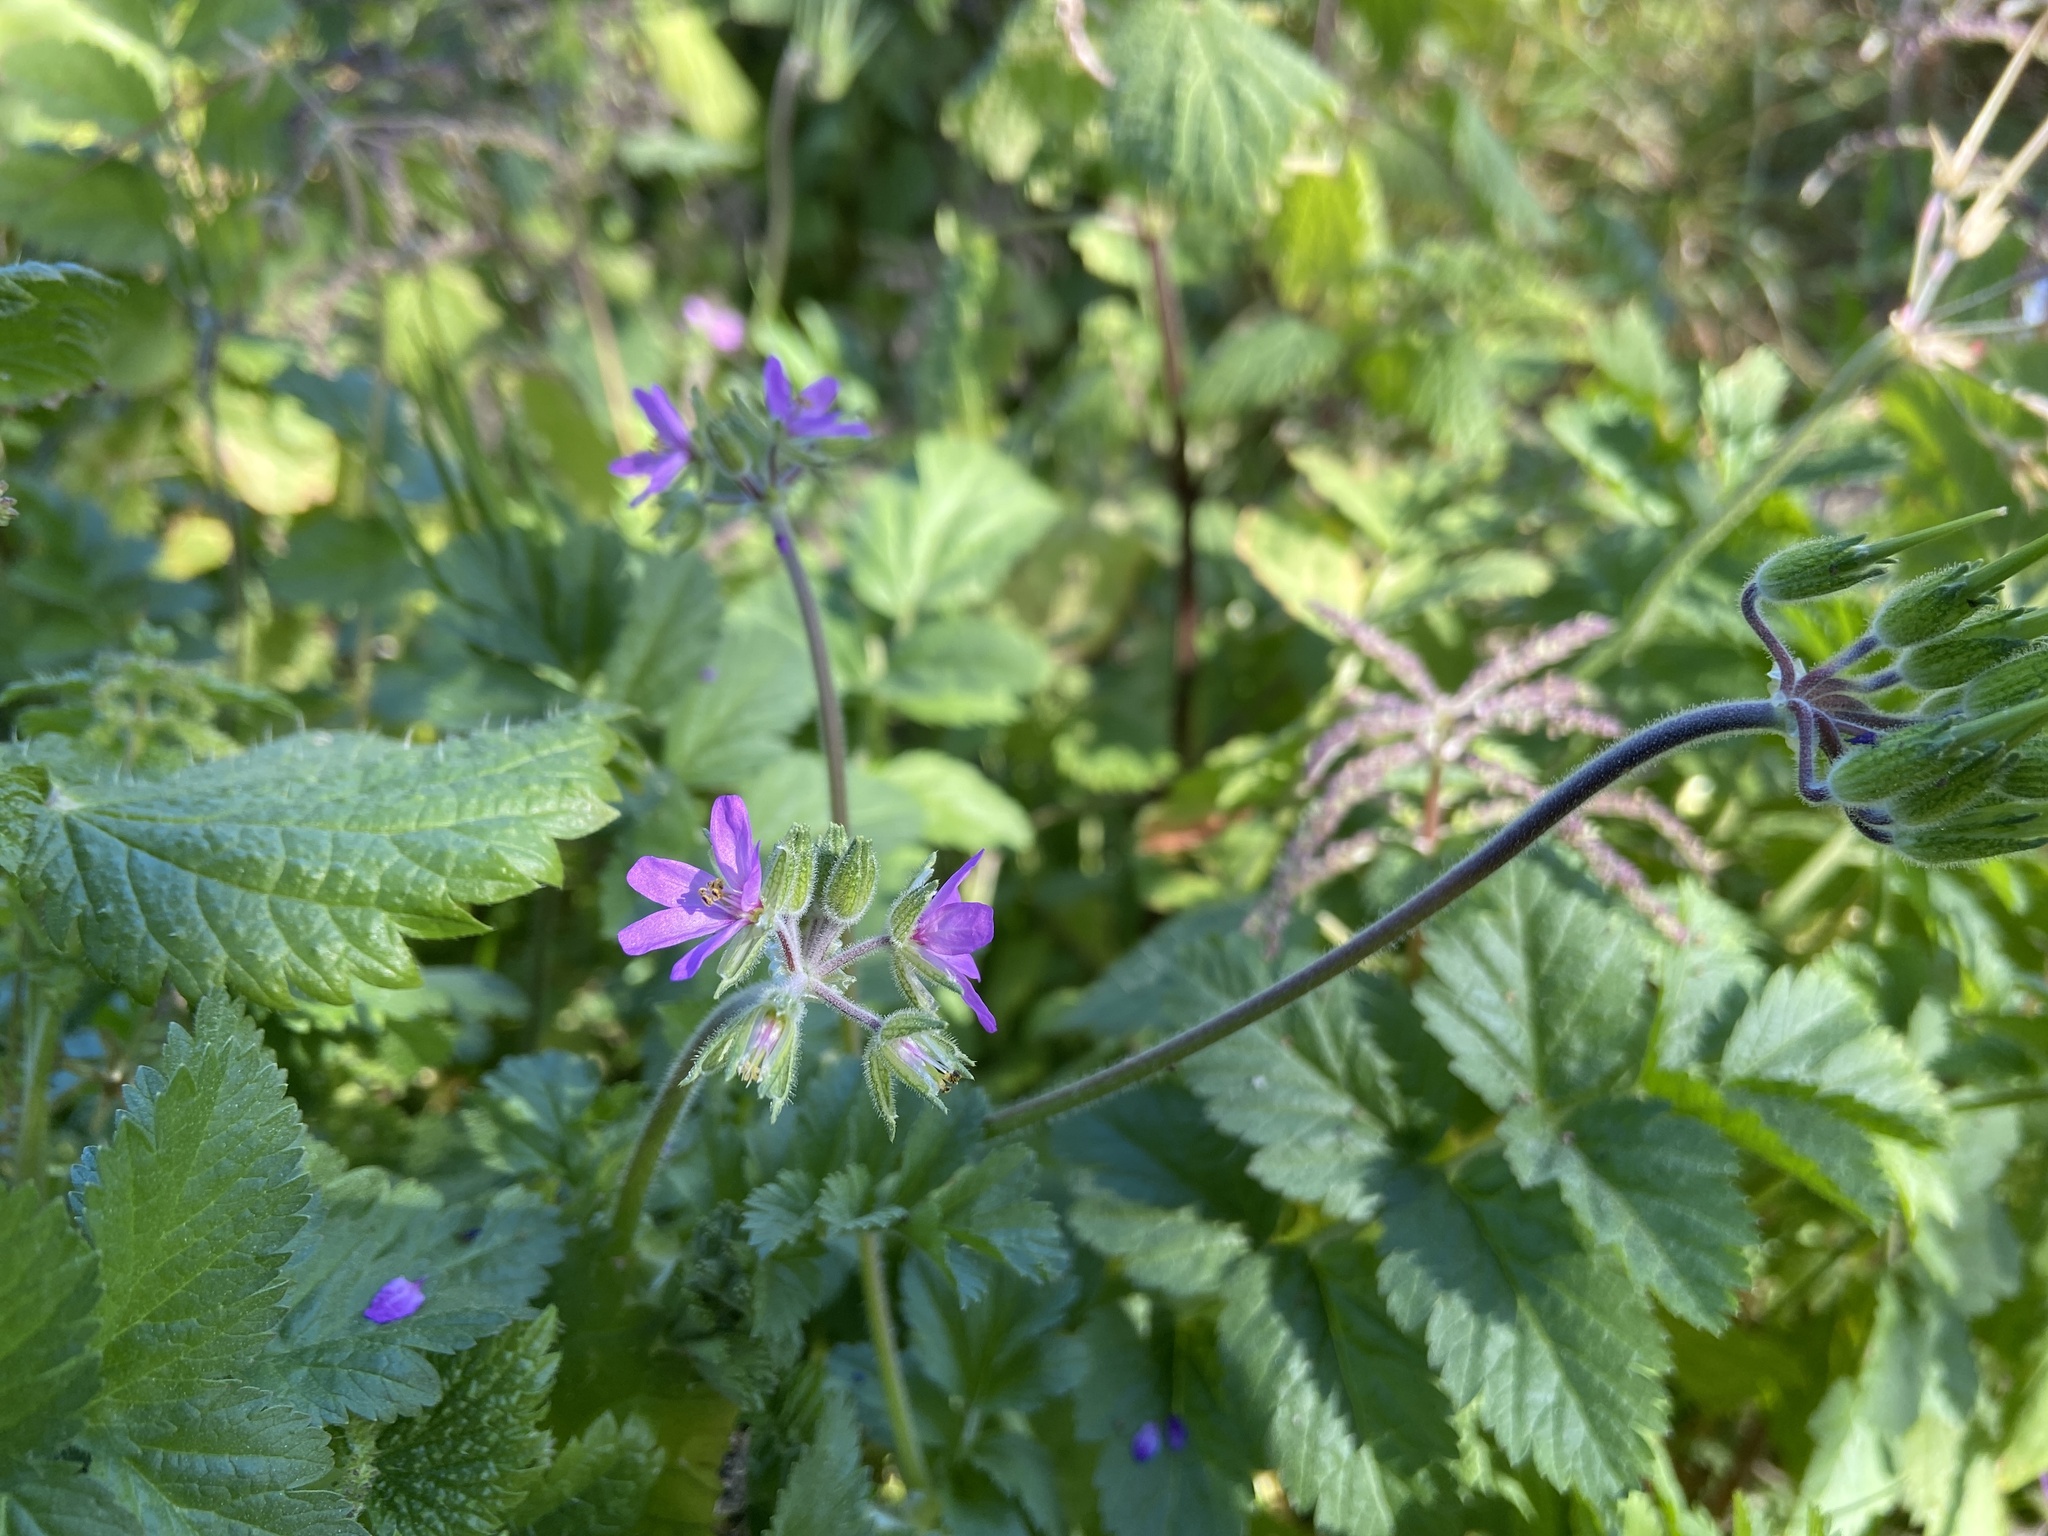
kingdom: Plantae
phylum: Tracheophyta
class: Magnoliopsida
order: Geraniales
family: Geraniaceae
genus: Erodium
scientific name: Erodium moschatum
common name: Musk stork's-bill
